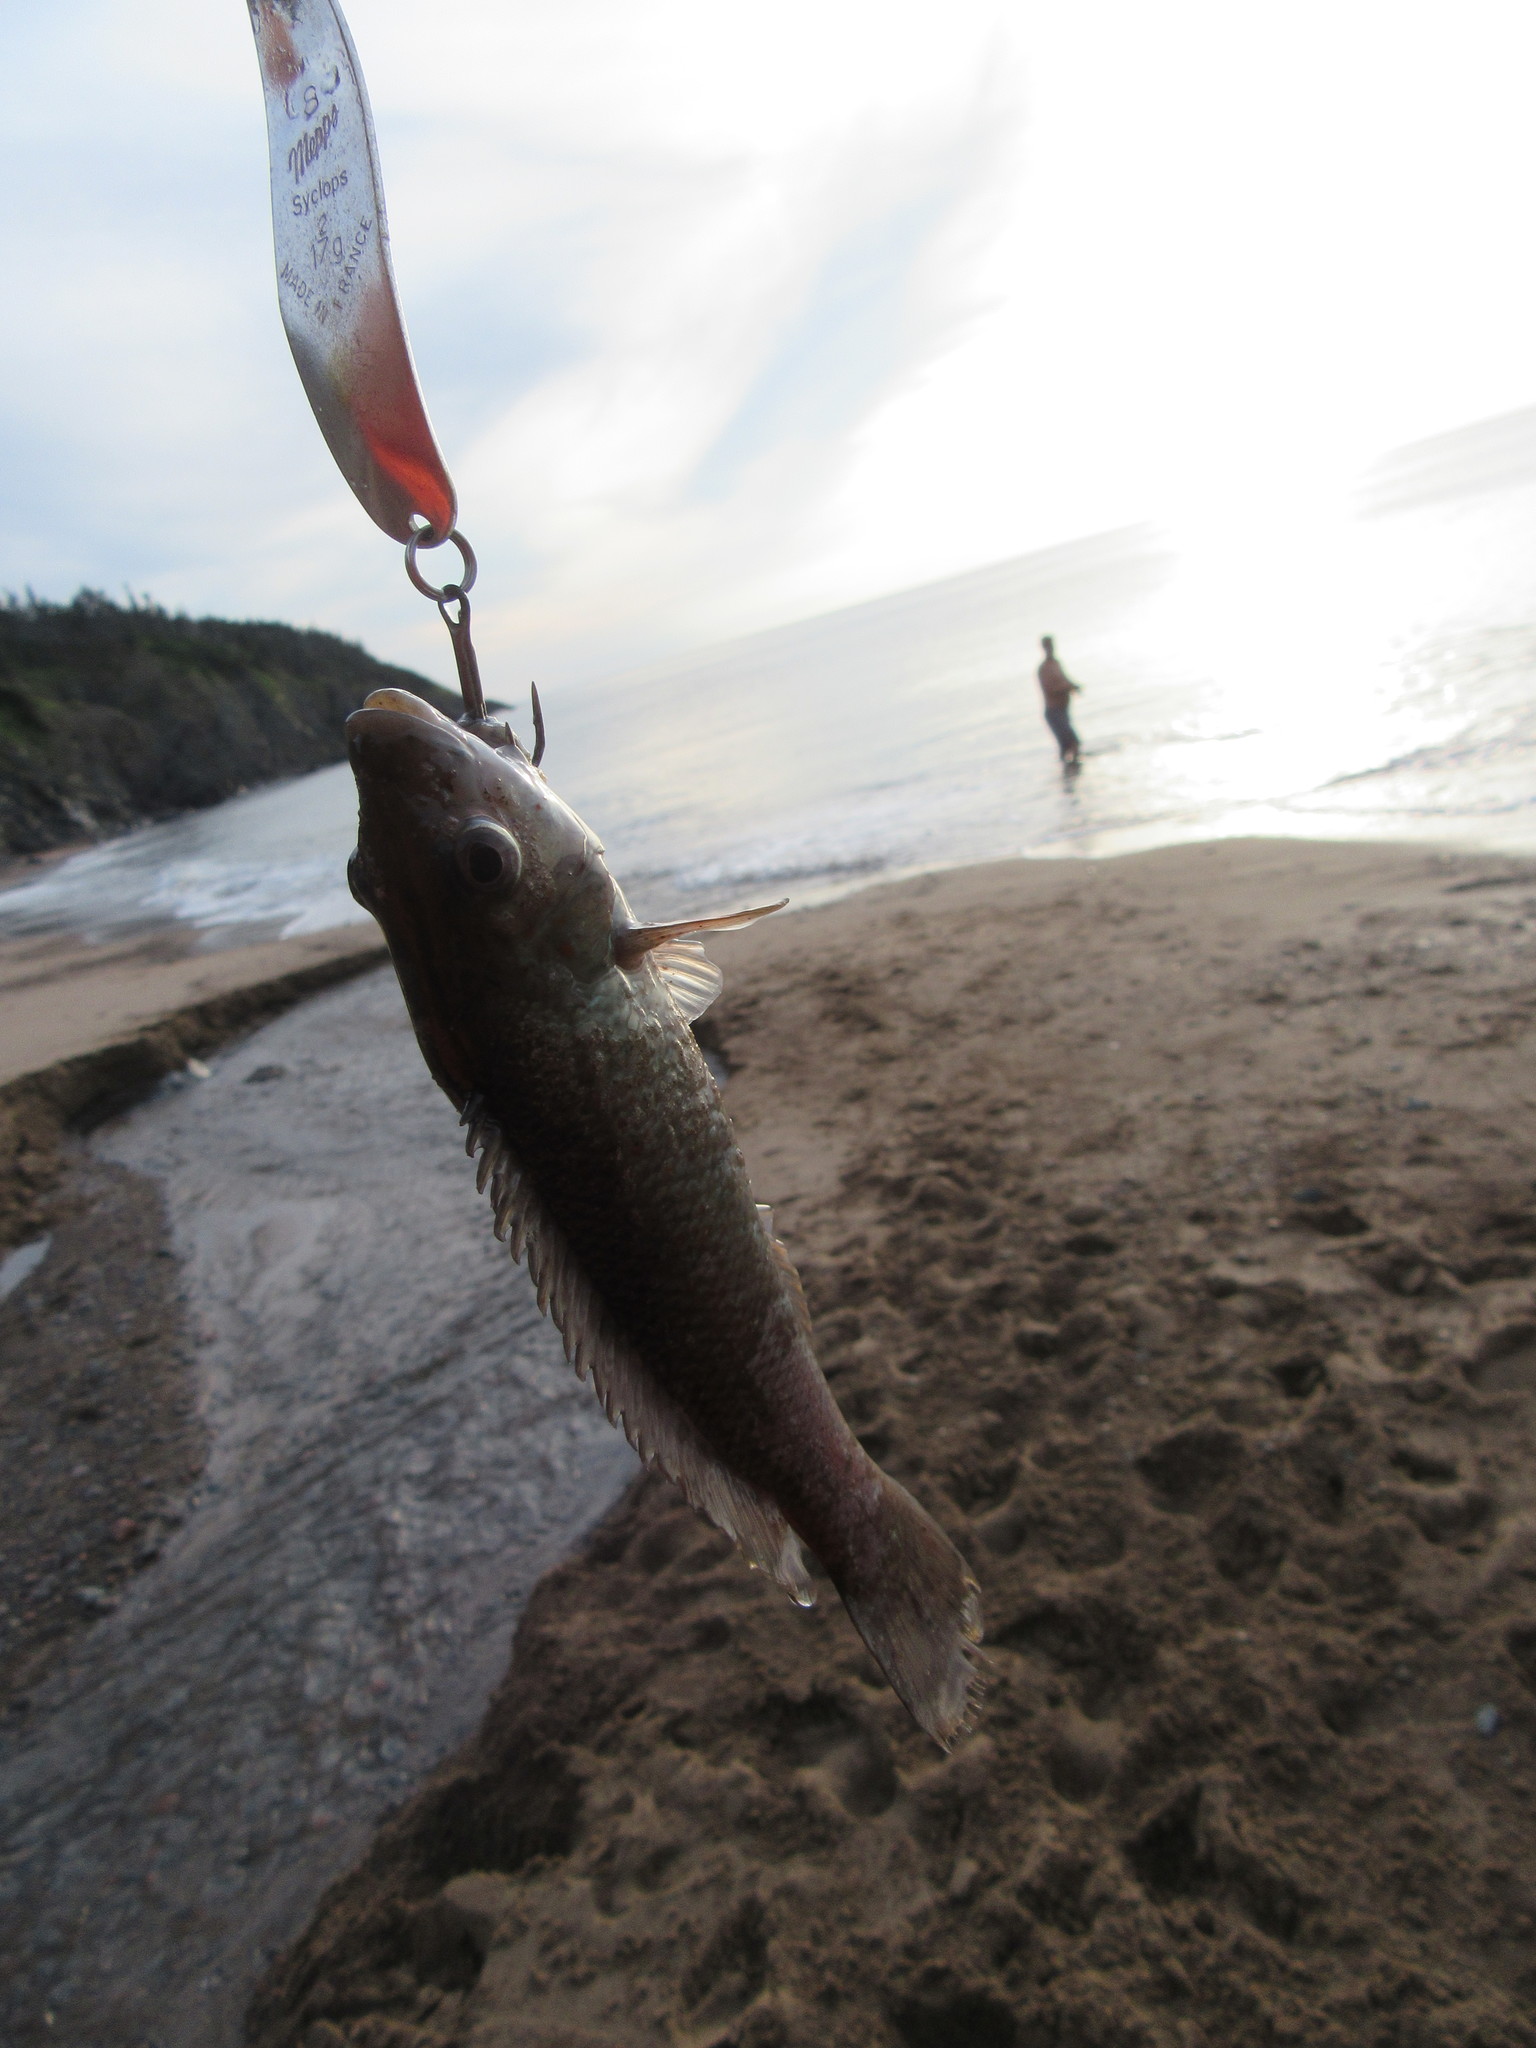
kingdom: Animalia
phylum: Chordata
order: Perciformes
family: Labridae
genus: Tautogolabrus
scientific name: Tautogolabrus adspersus
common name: Cunner
